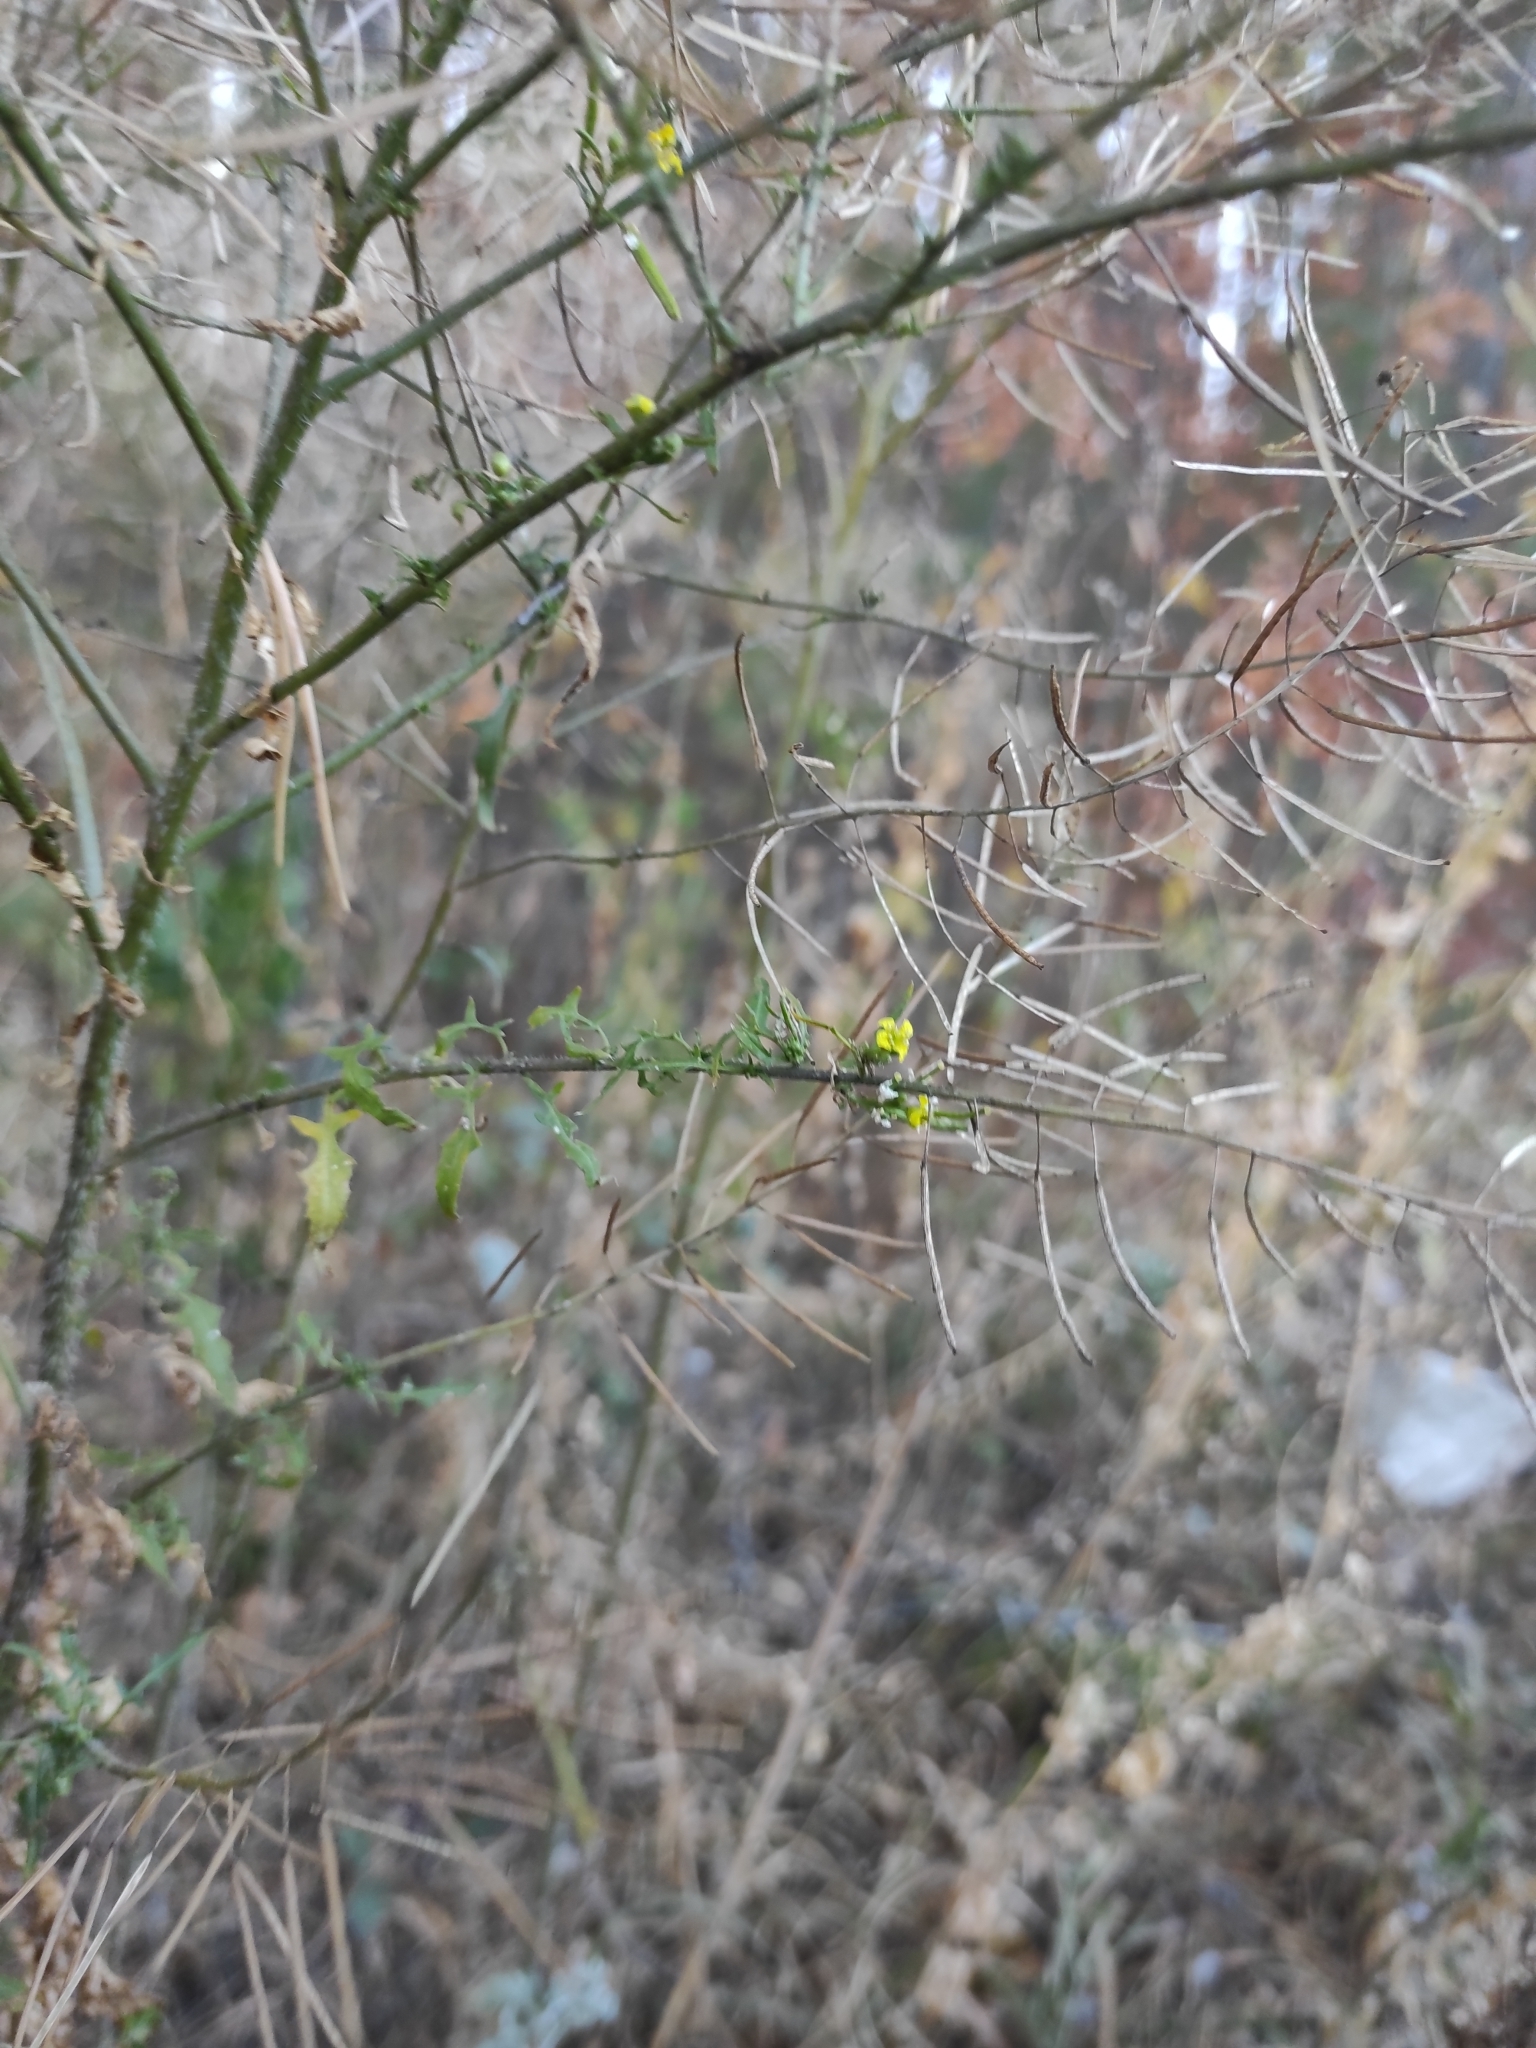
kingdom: Plantae
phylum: Tracheophyta
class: Magnoliopsida
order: Brassicales
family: Brassicaceae
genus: Sisymbrium
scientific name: Sisymbrium loeselii
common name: False london-rocket
